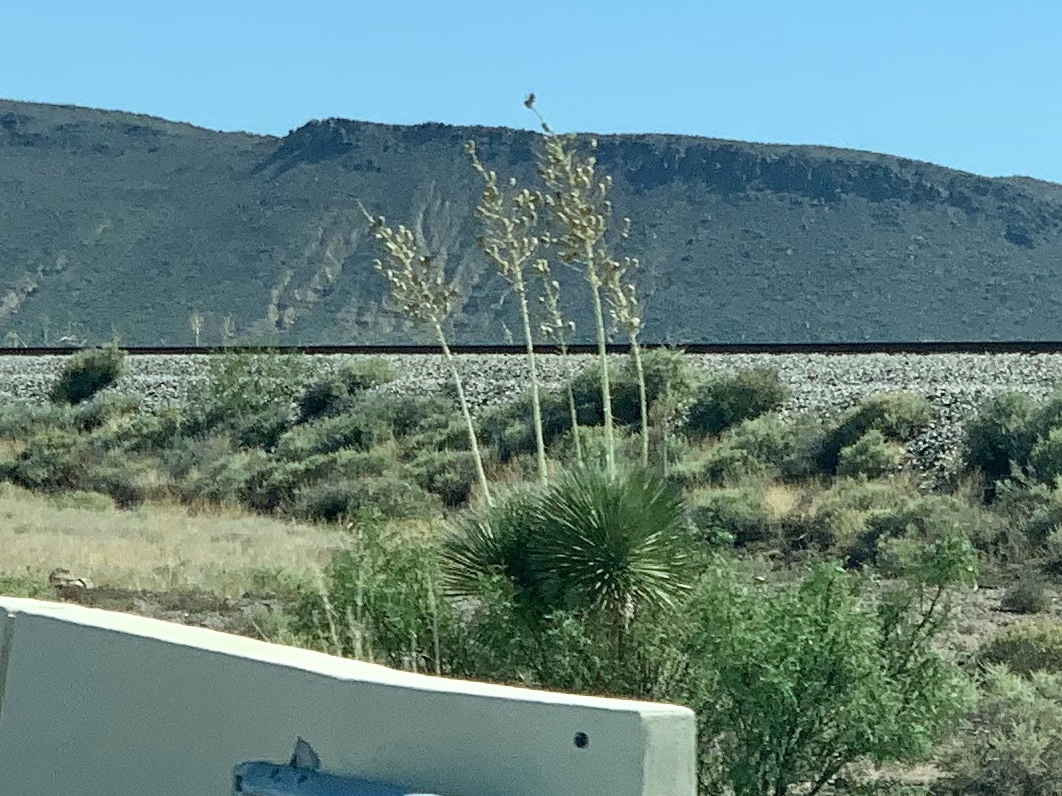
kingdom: Plantae
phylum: Tracheophyta
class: Liliopsida
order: Asparagales
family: Asparagaceae
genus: Yucca
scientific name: Yucca elata
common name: Palmella
